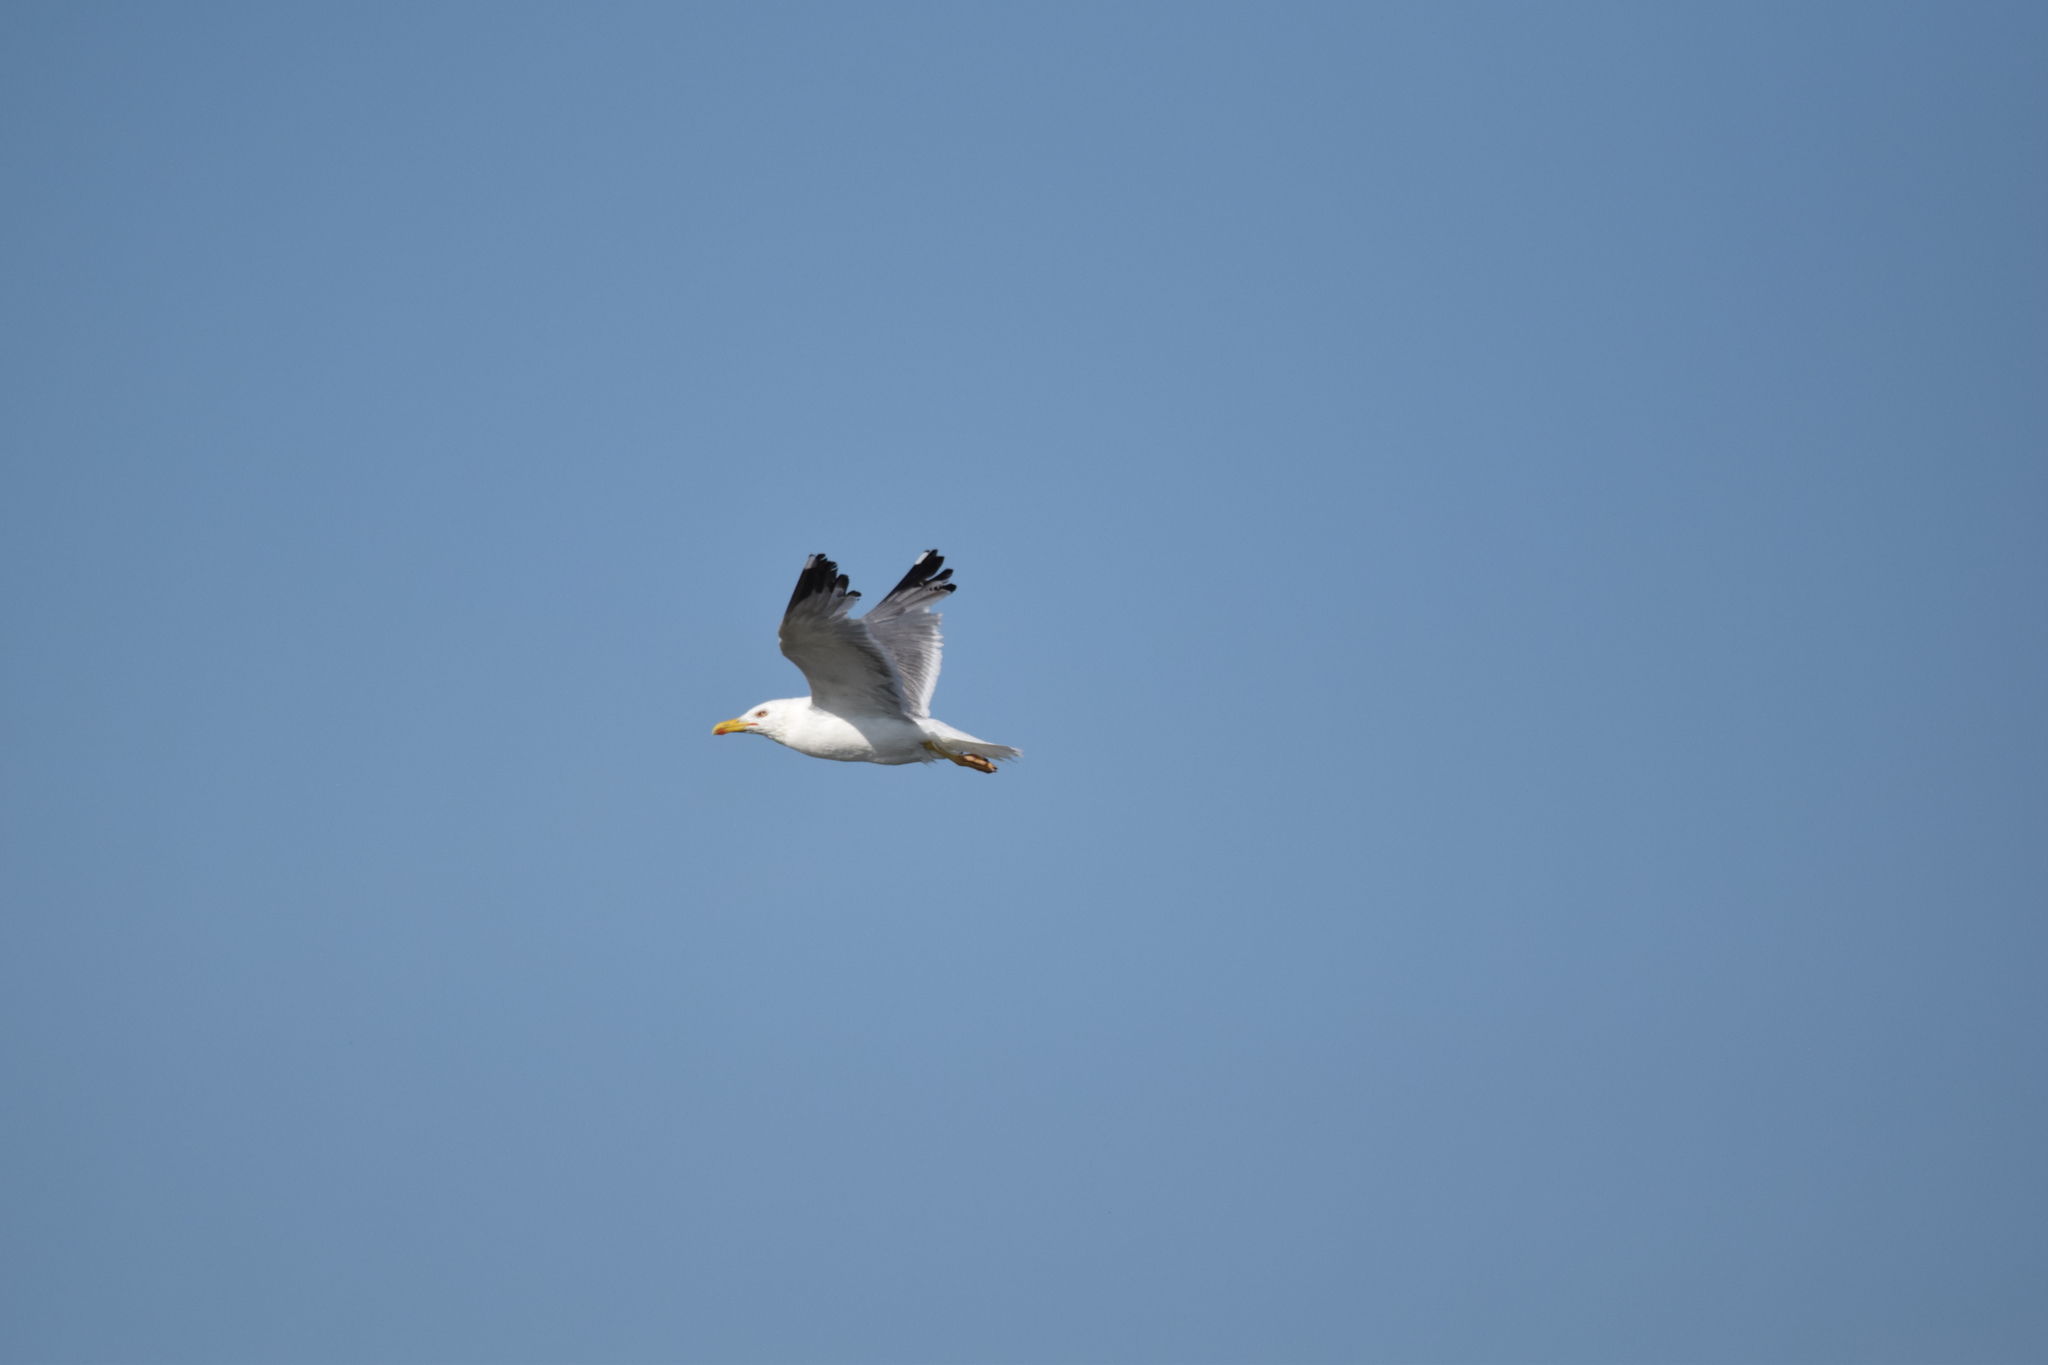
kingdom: Animalia
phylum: Chordata
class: Aves
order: Charadriiformes
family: Laridae
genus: Larus
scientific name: Larus michahellis
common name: Yellow-legged gull
